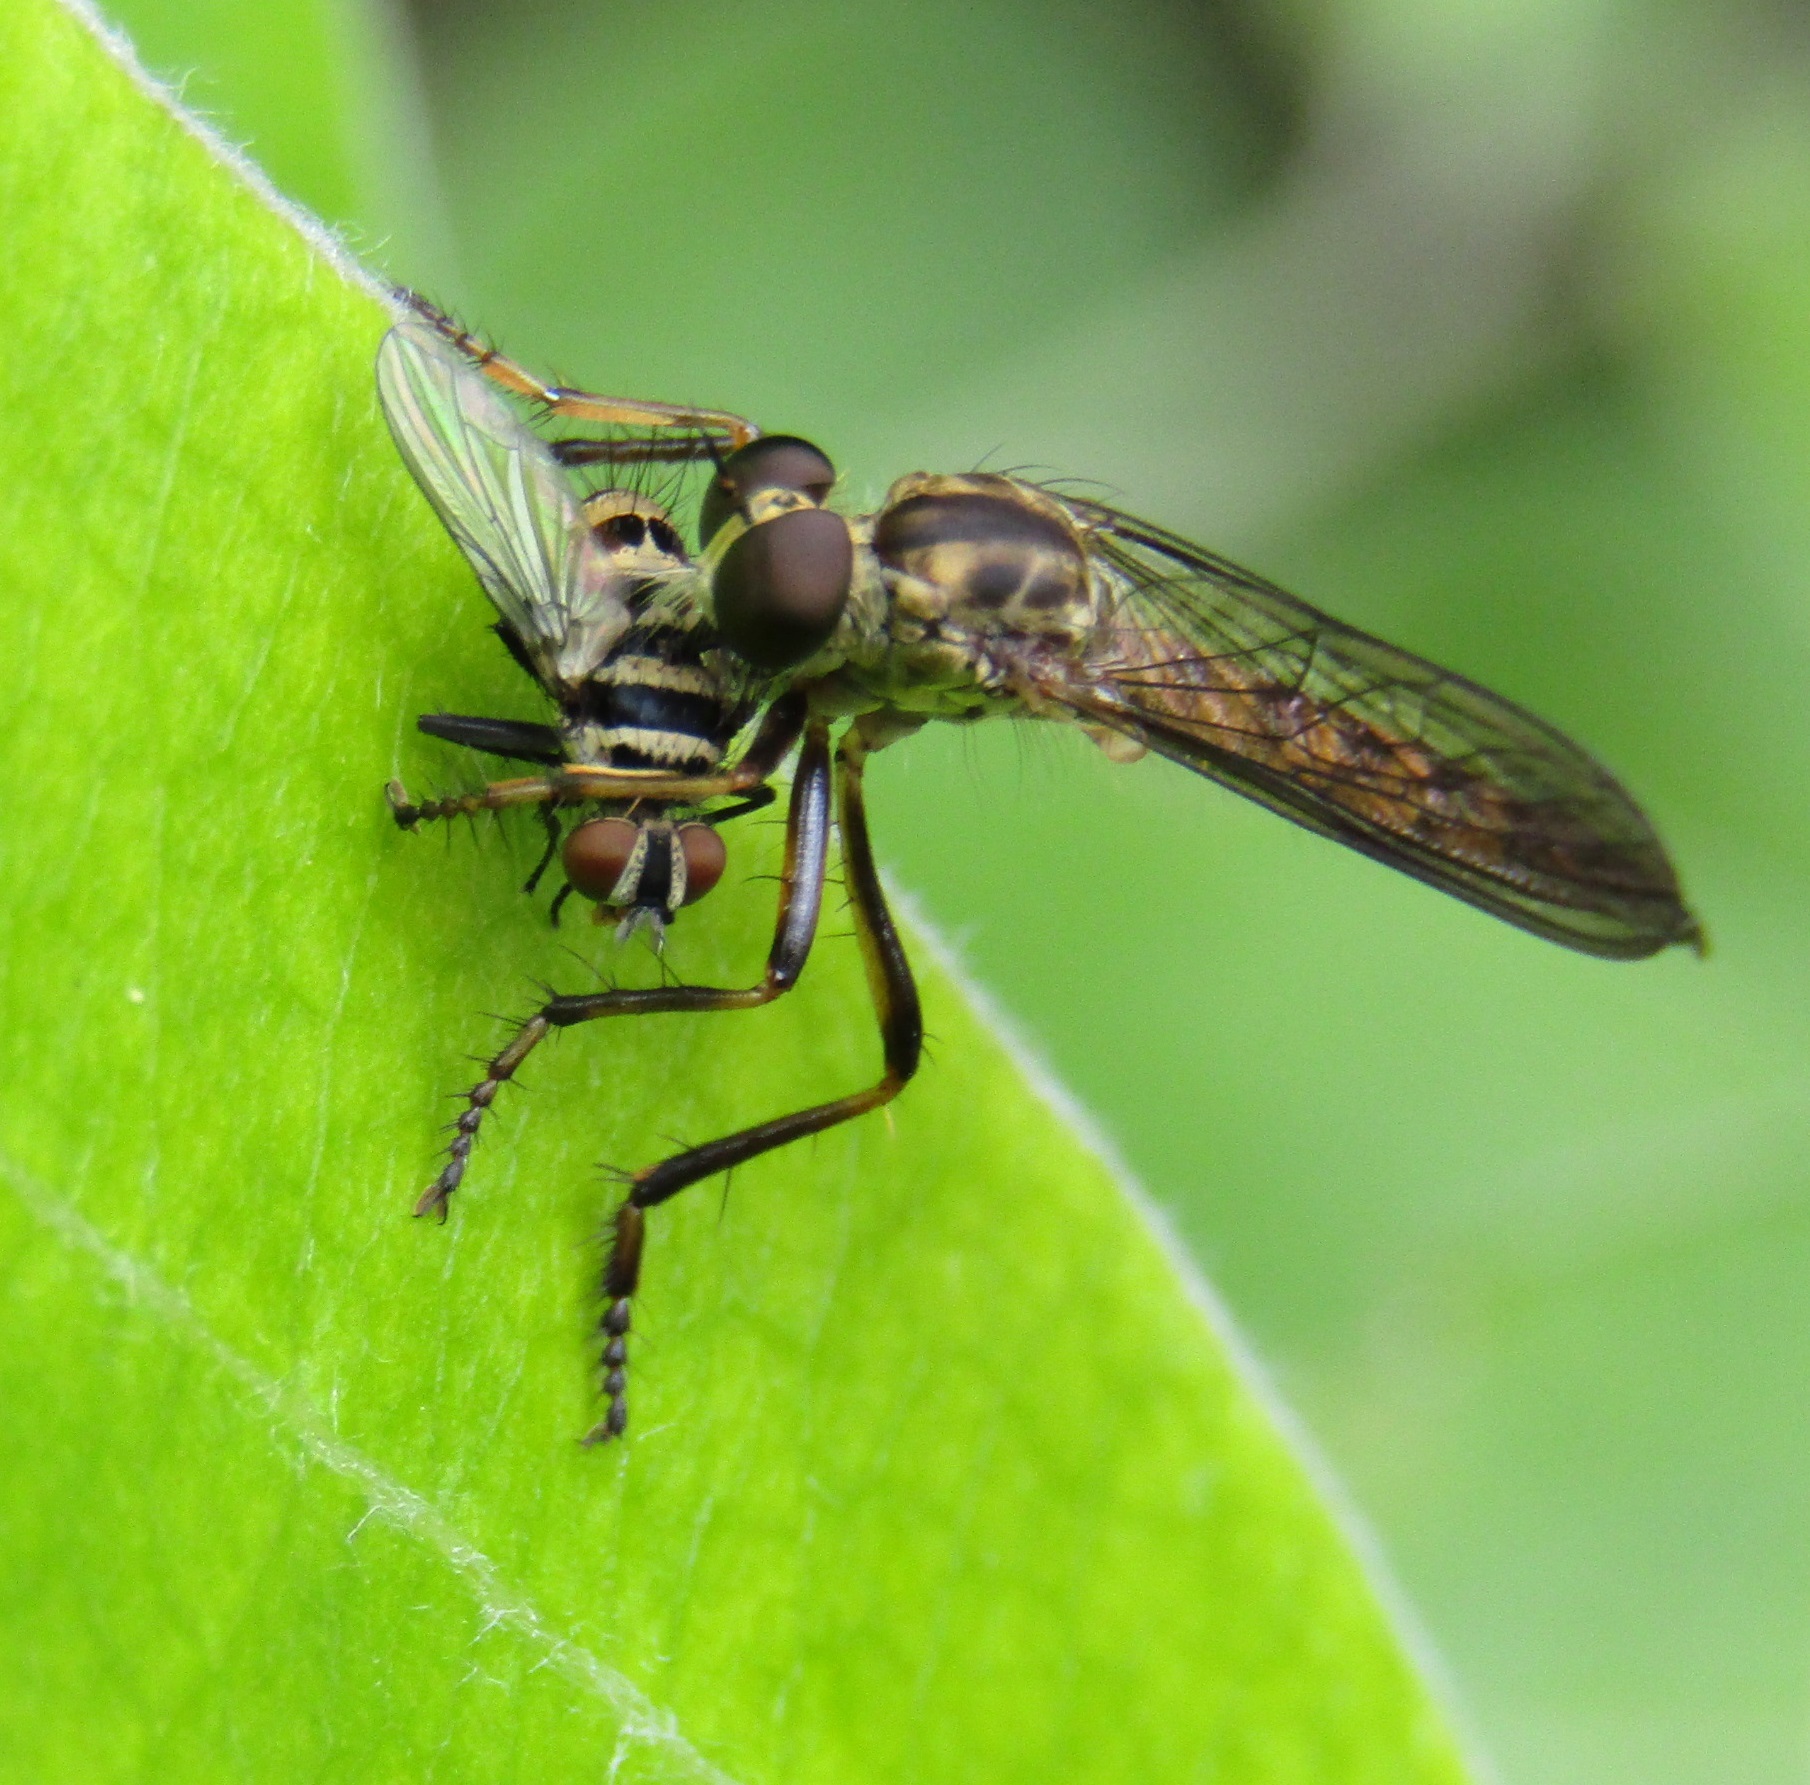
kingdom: Animalia
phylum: Arthropoda
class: Insecta
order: Diptera
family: Tachinidae
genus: Trigonospila
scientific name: Trigonospila brevifacies
